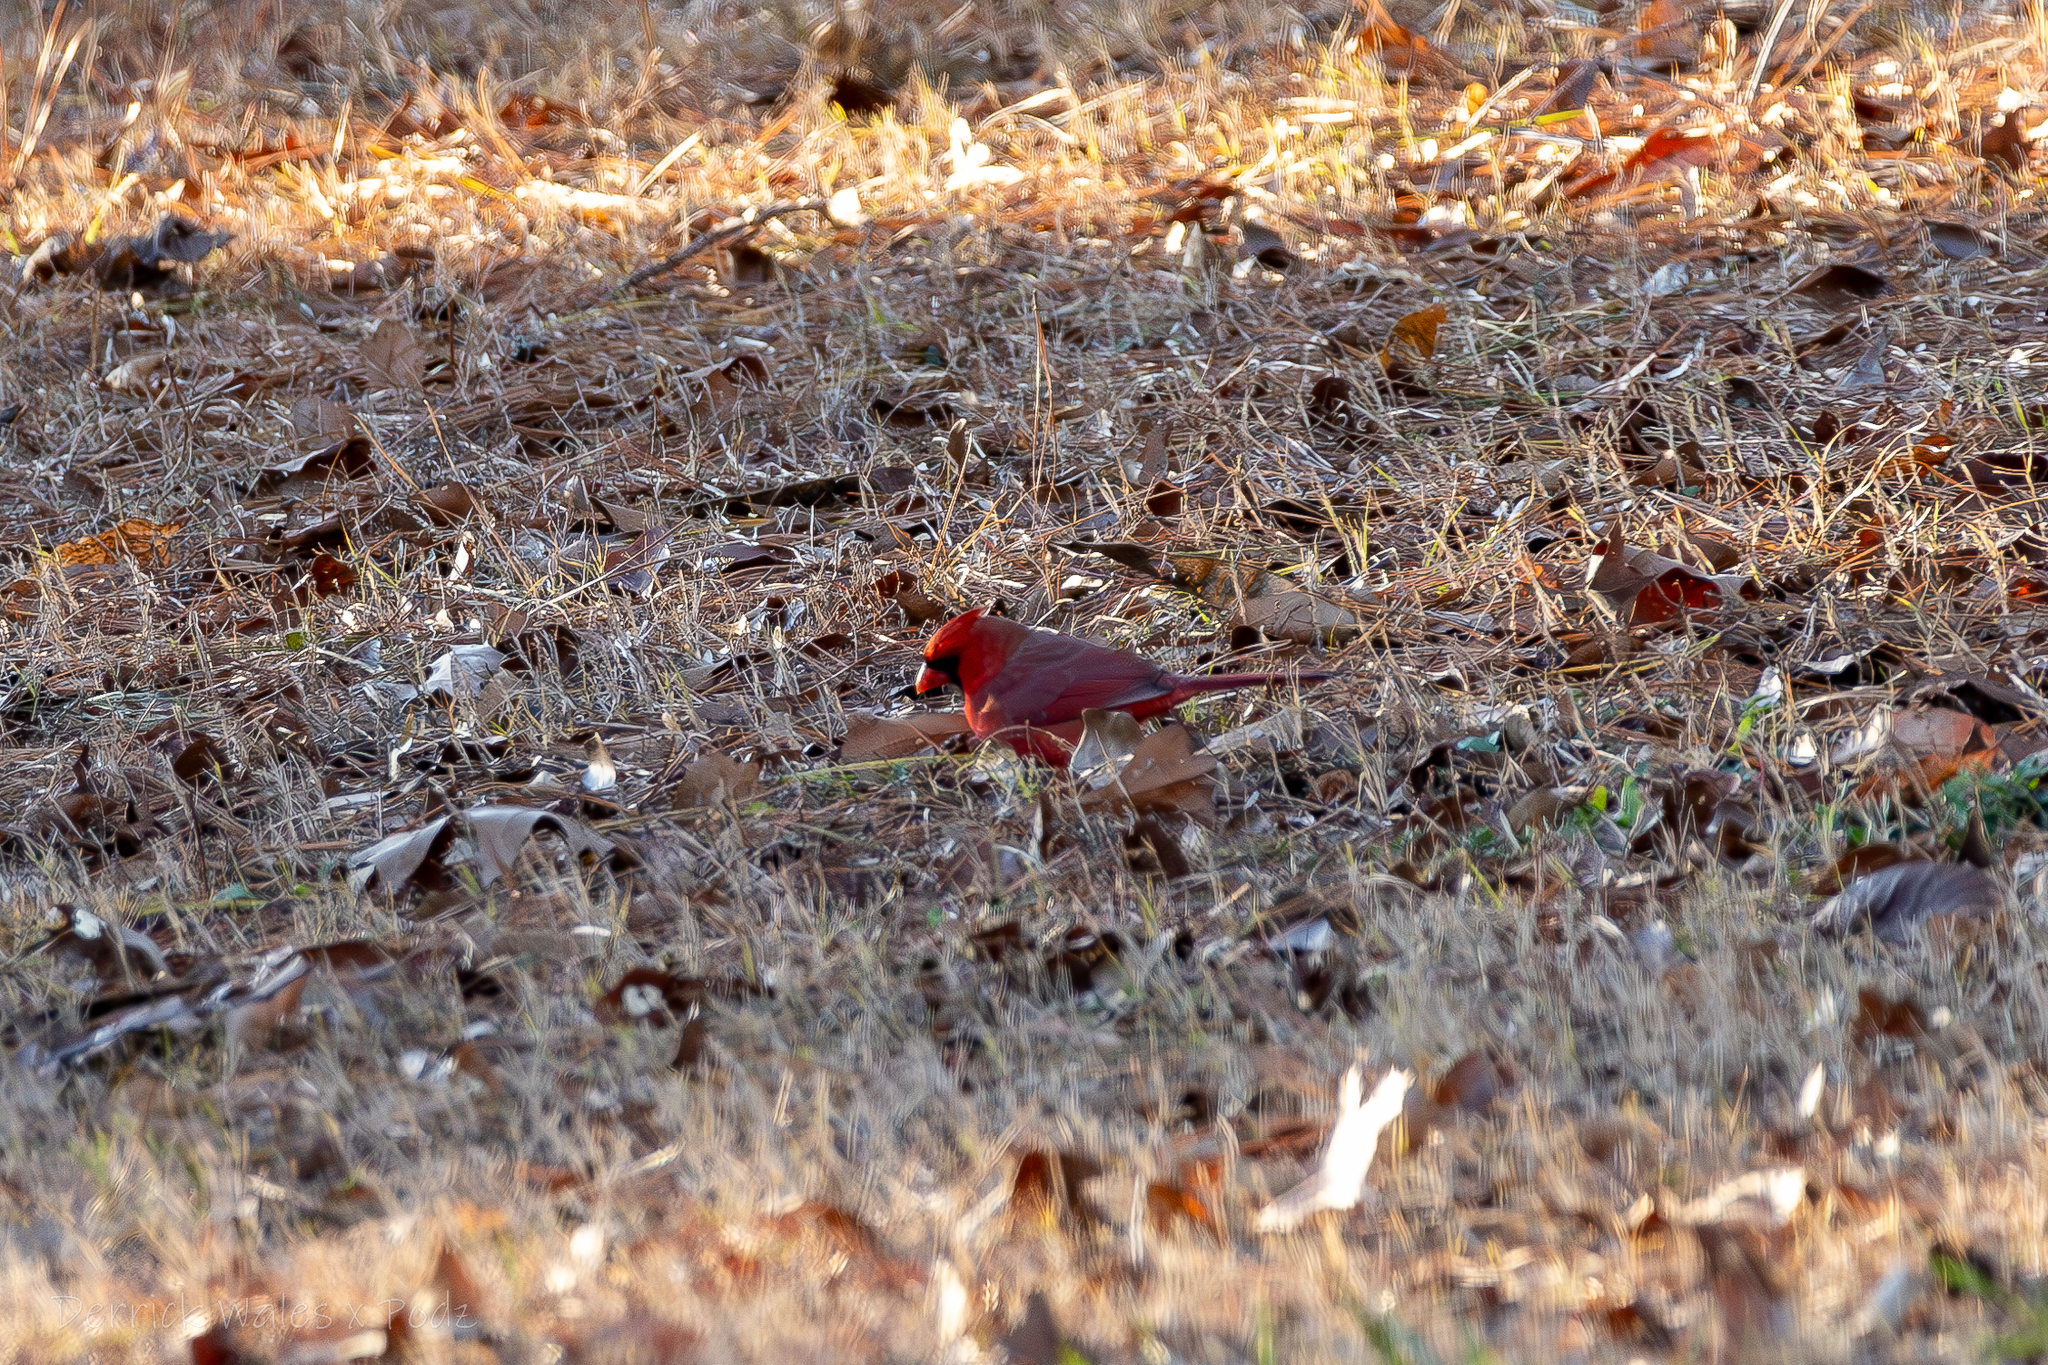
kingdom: Animalia
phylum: Chordata
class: Aves
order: Passeriformes
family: Cardinalidae
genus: Cardinalis
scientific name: Cardinalis cardinalis
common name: Northern cardinal
